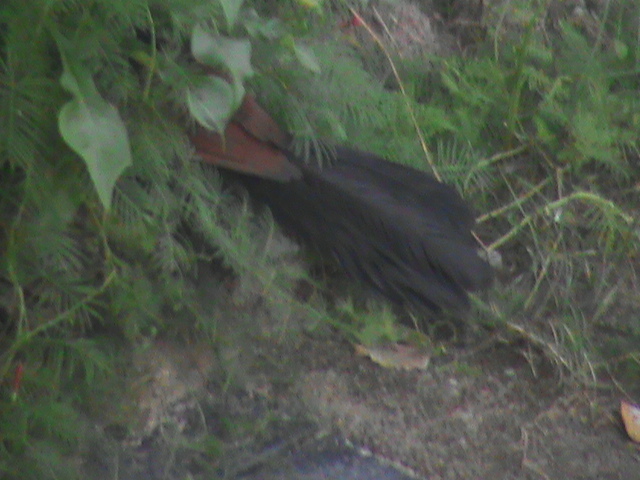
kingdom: Animalia
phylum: Chordata
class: Aves
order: Cuculiformes
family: Cuculidae
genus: Centropus
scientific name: Centropus sinensis
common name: Greater coucal
